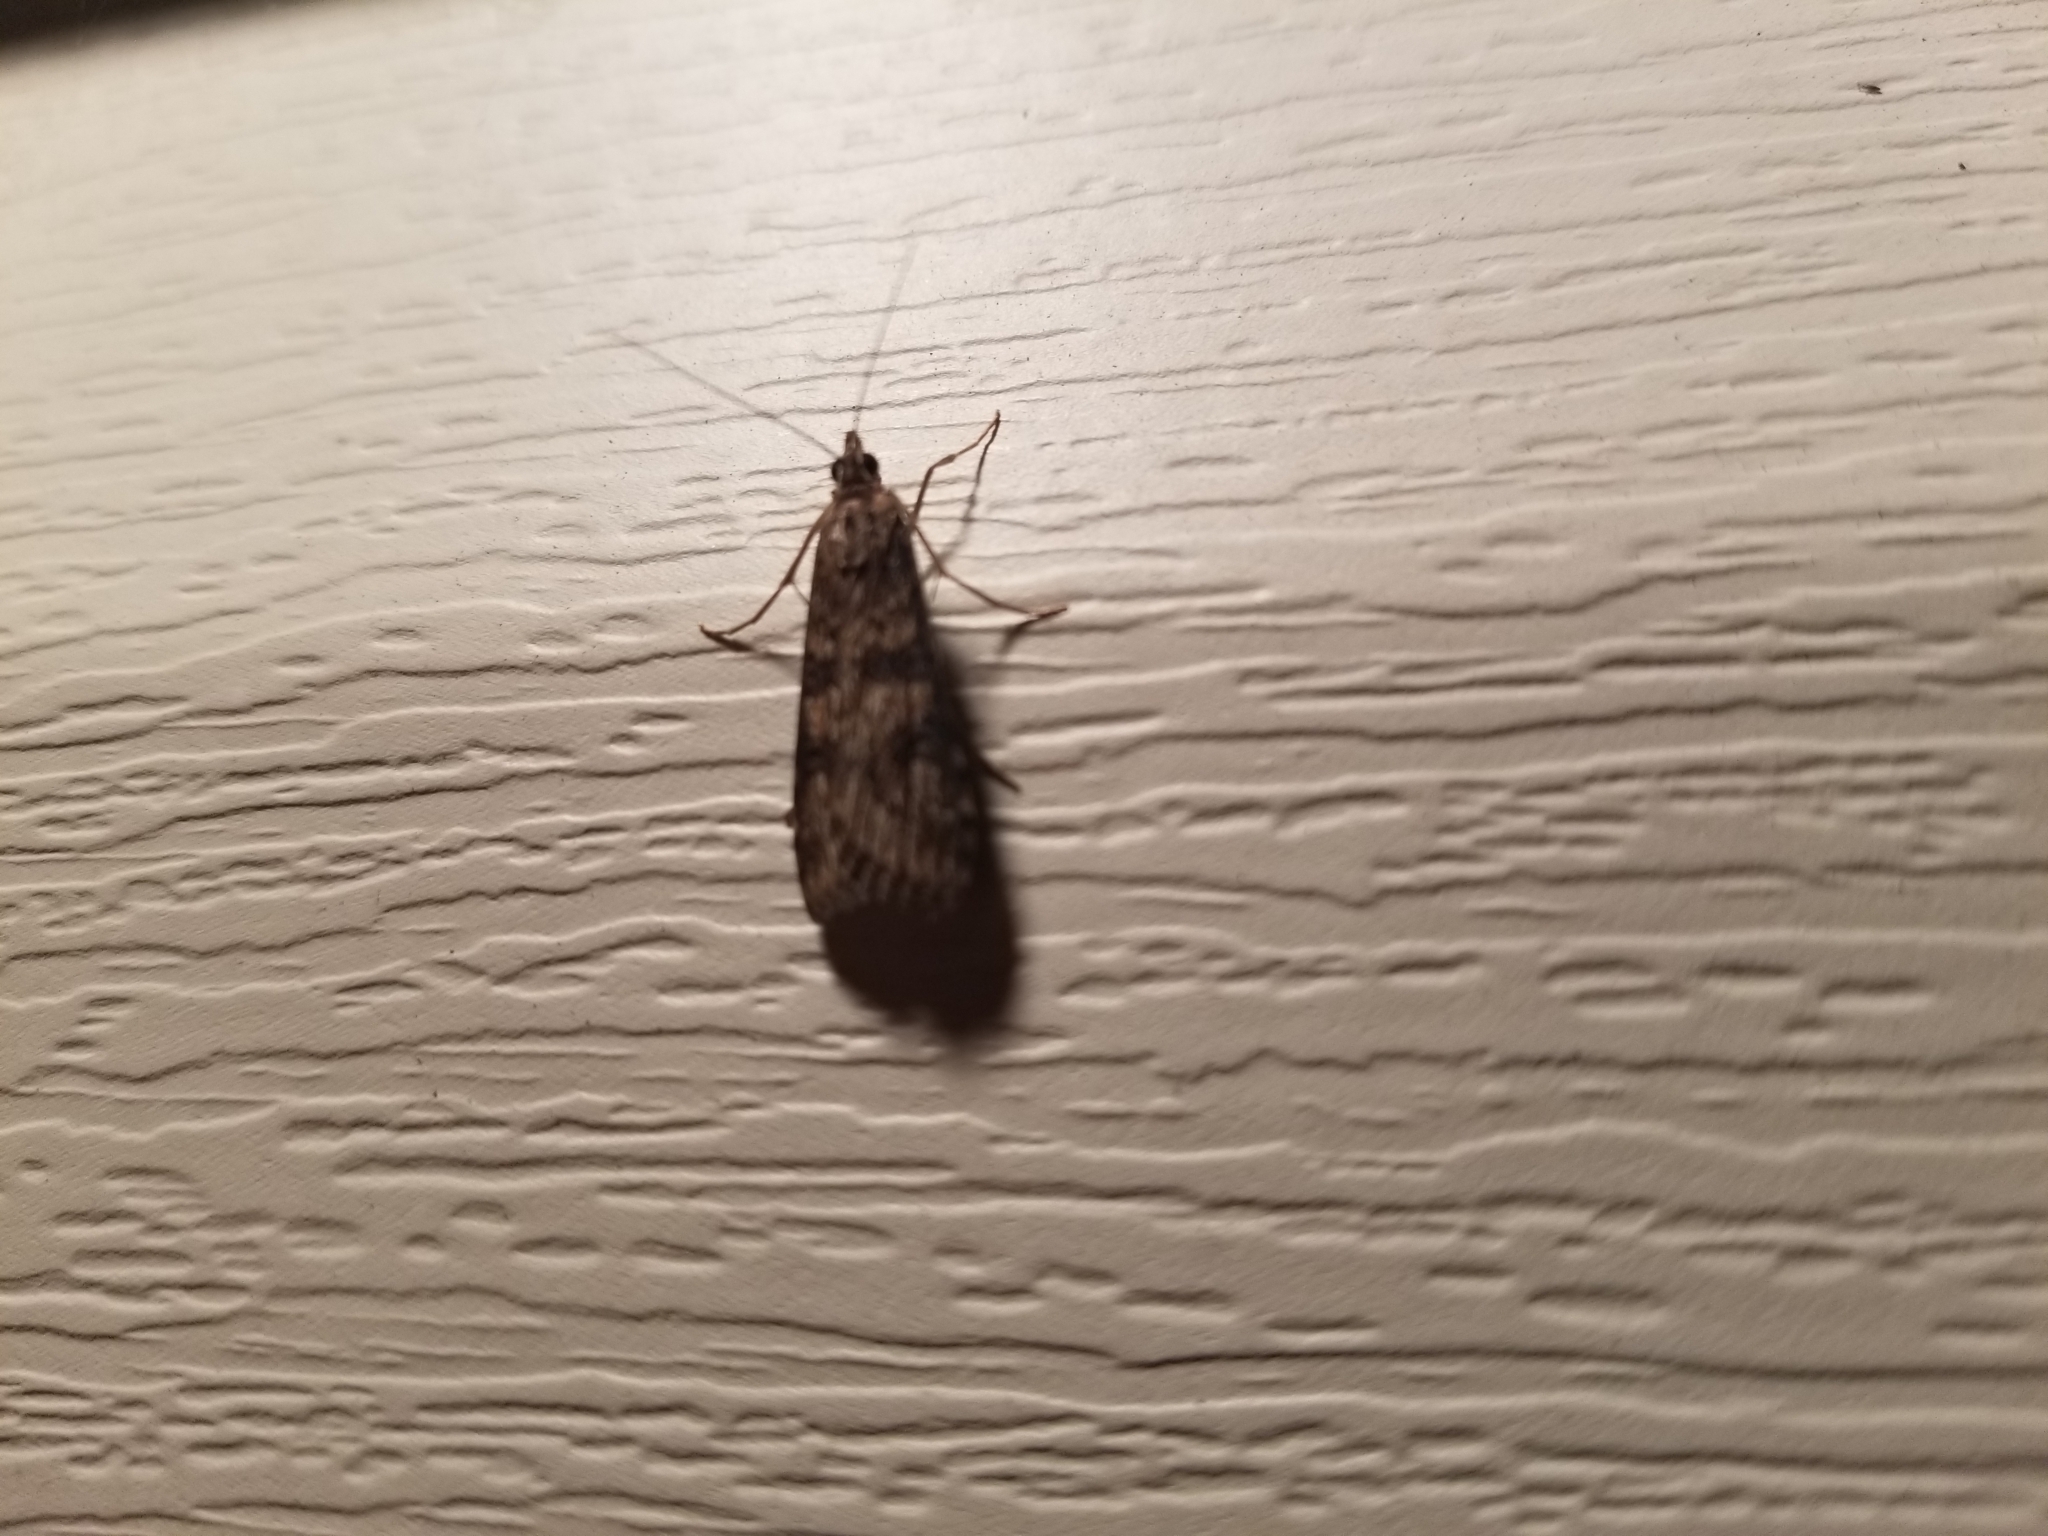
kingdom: Animalia
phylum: Arthropoda
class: Insecta
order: Lepidoptera
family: Crambidae
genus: Nomophila
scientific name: Nomophila nearctica
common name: American rush veneer
